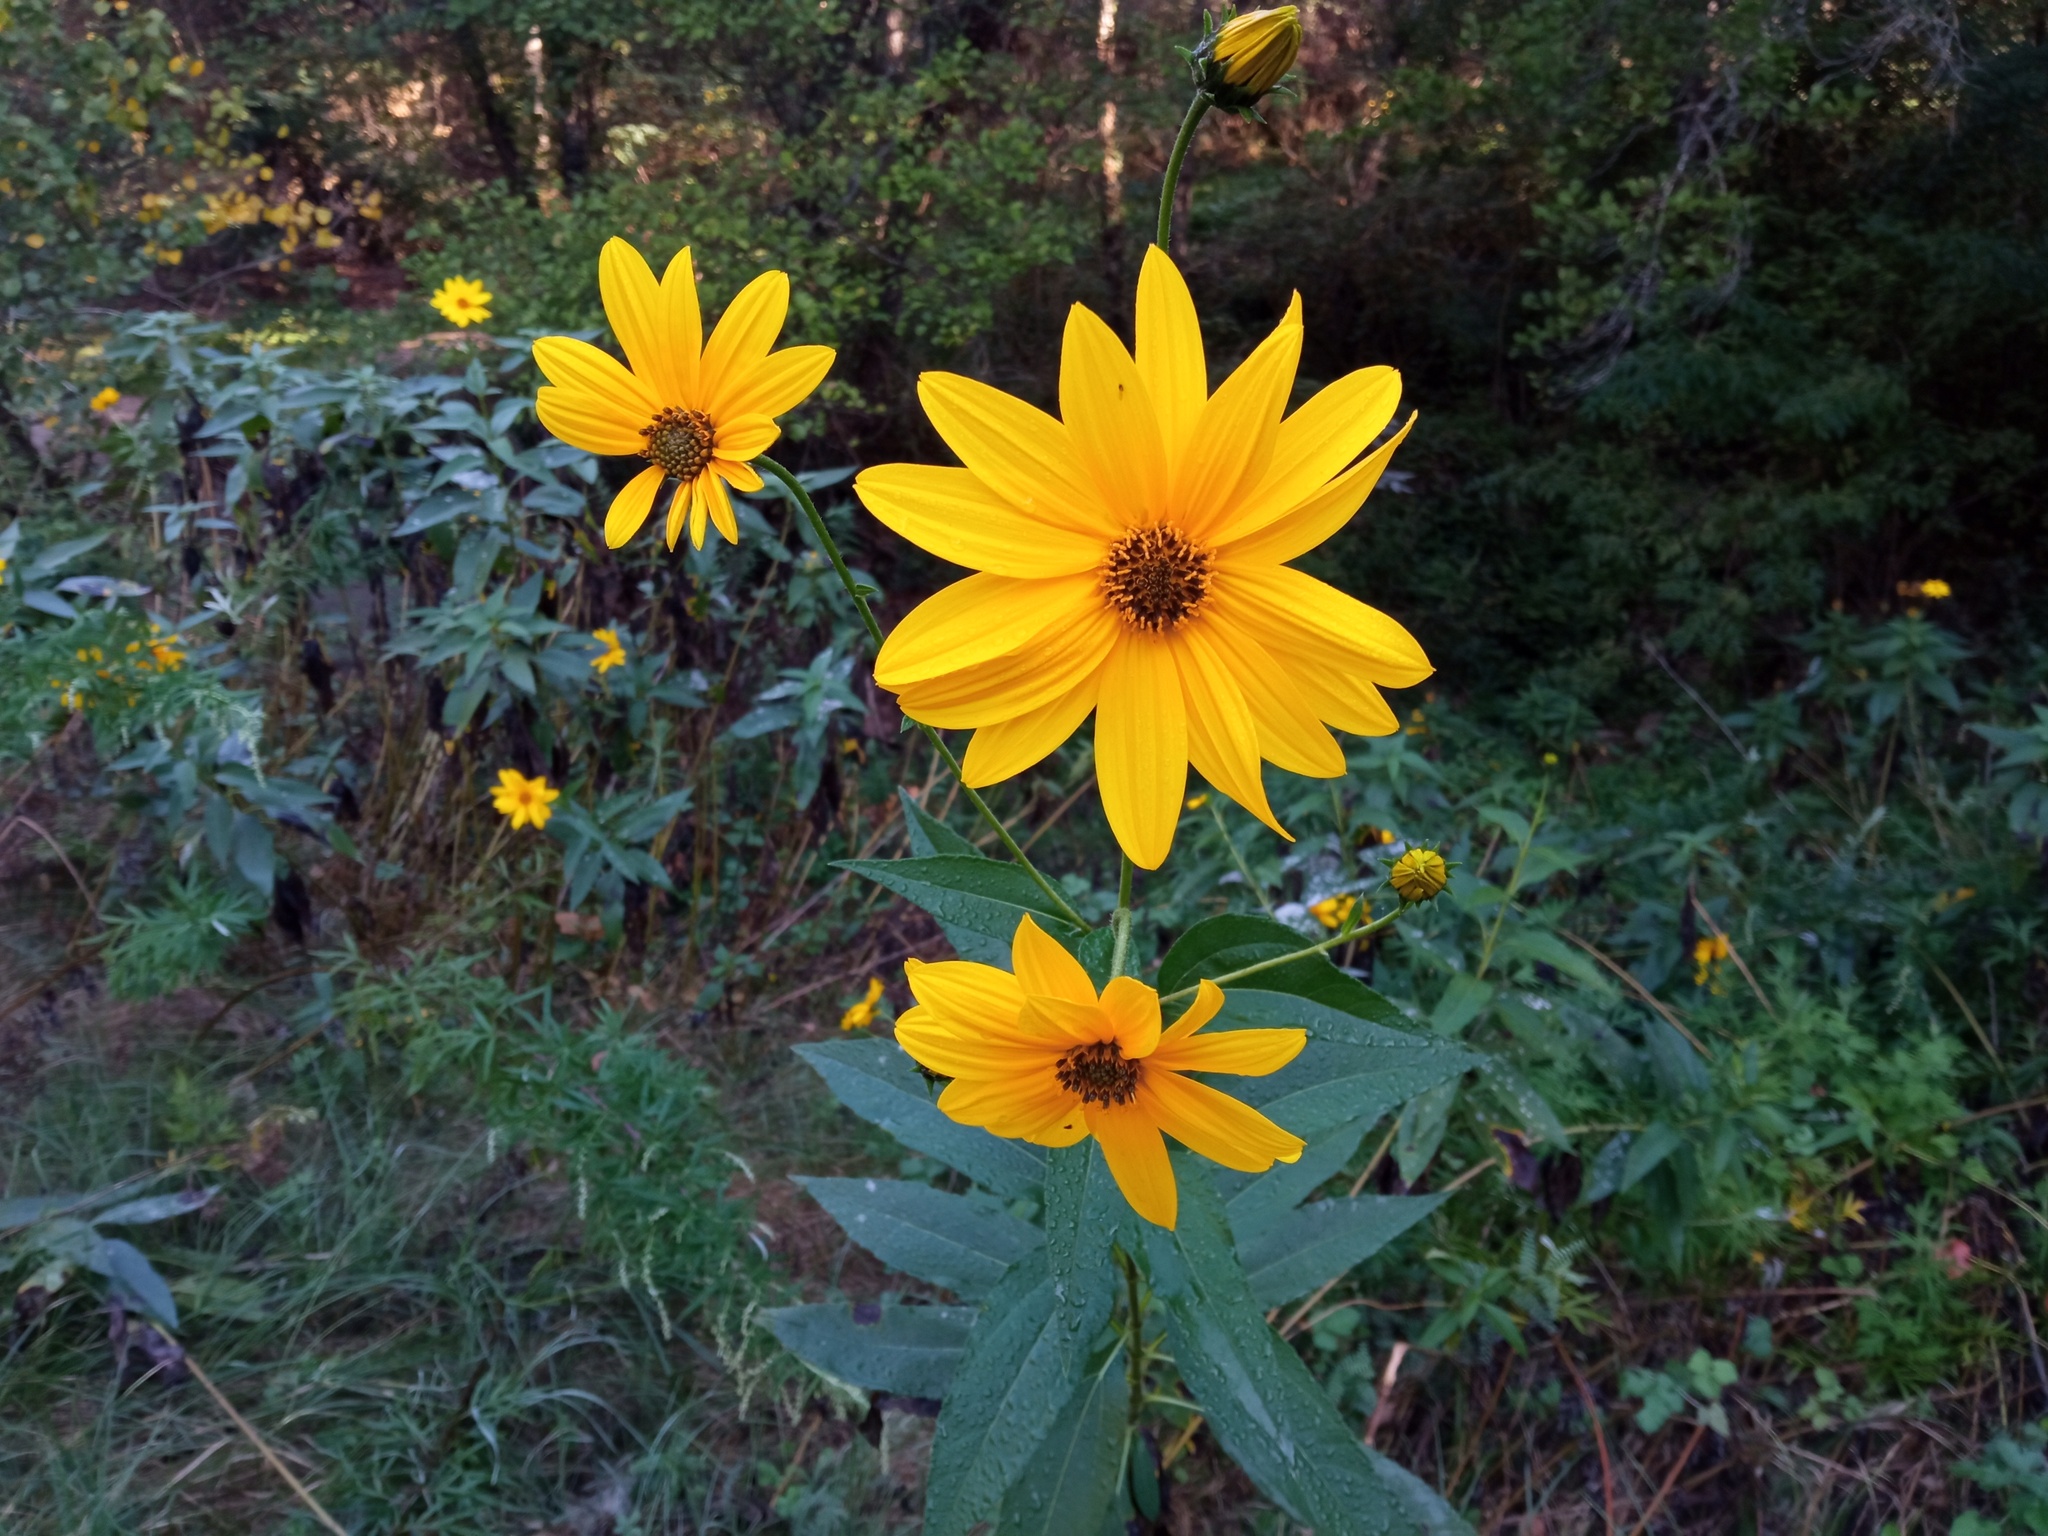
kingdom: Plantae
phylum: Tracheophyta
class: Magnoliopsida
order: Asterales
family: Asteraceae
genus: Helianthus
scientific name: Helianthus tuberosus
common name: Jerusalem artichoke
